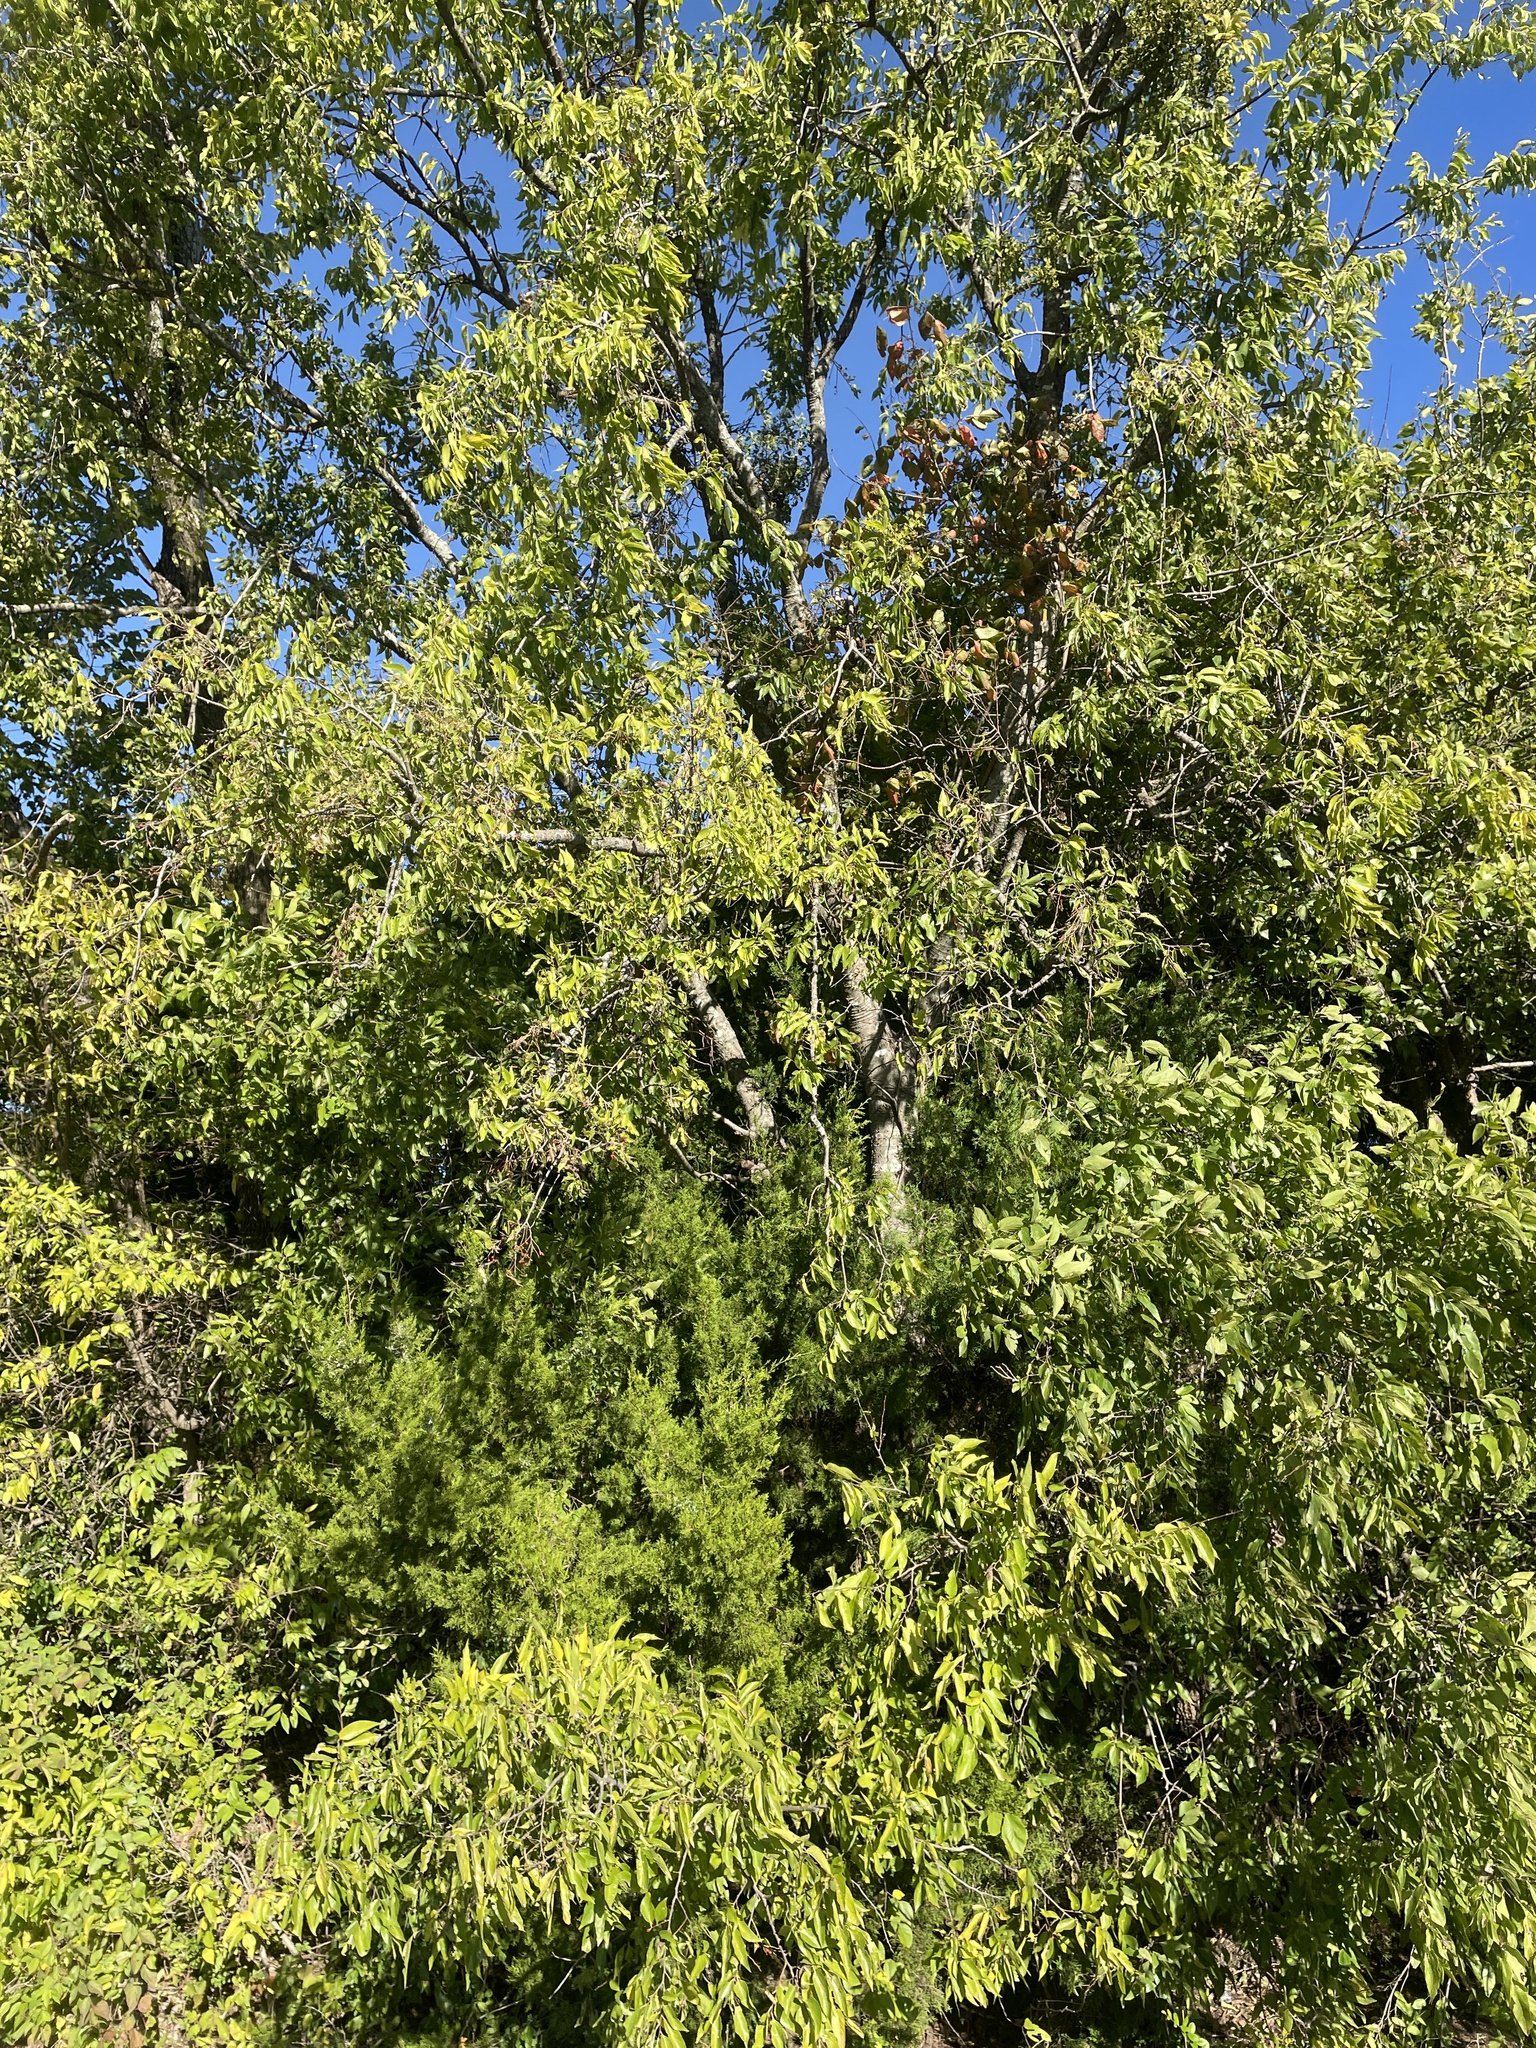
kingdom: Plantae
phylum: Tracheophyta
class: Magnoliopsida
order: Rosales
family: Cannabaceae
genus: Celtis
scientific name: Celtis laevigata
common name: Sugarberry
